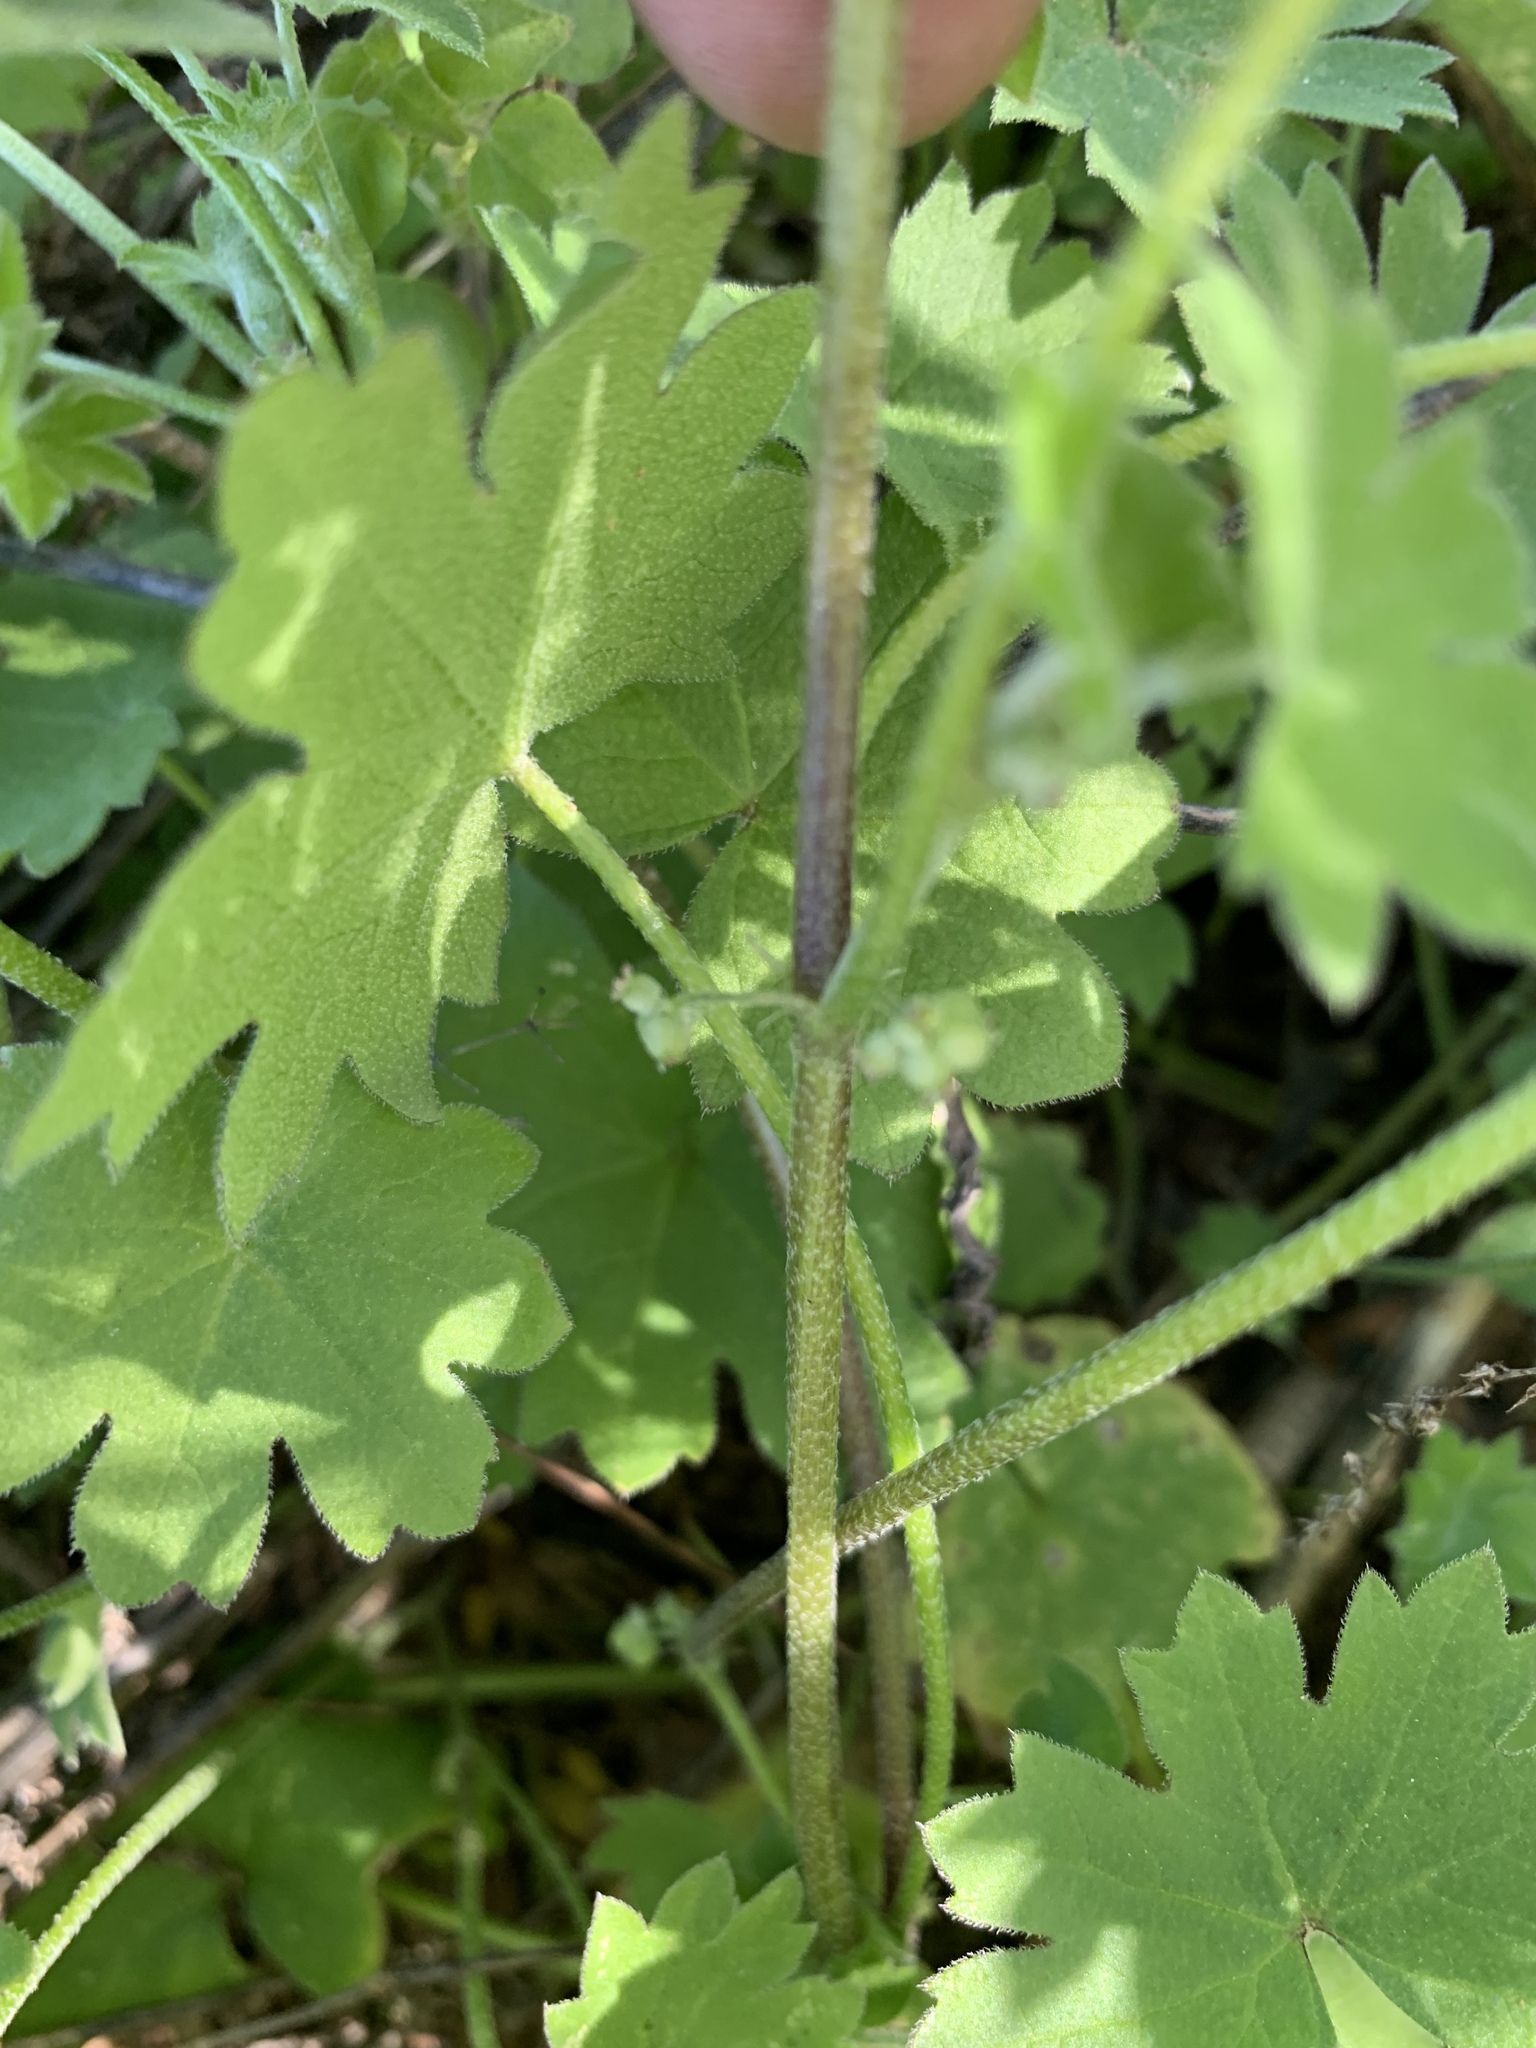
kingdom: Plantae
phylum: Tracheophyta
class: Magnoliopsida
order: Apiales
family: Apiaceae
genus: Bowlesia
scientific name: Bowlesia incana
